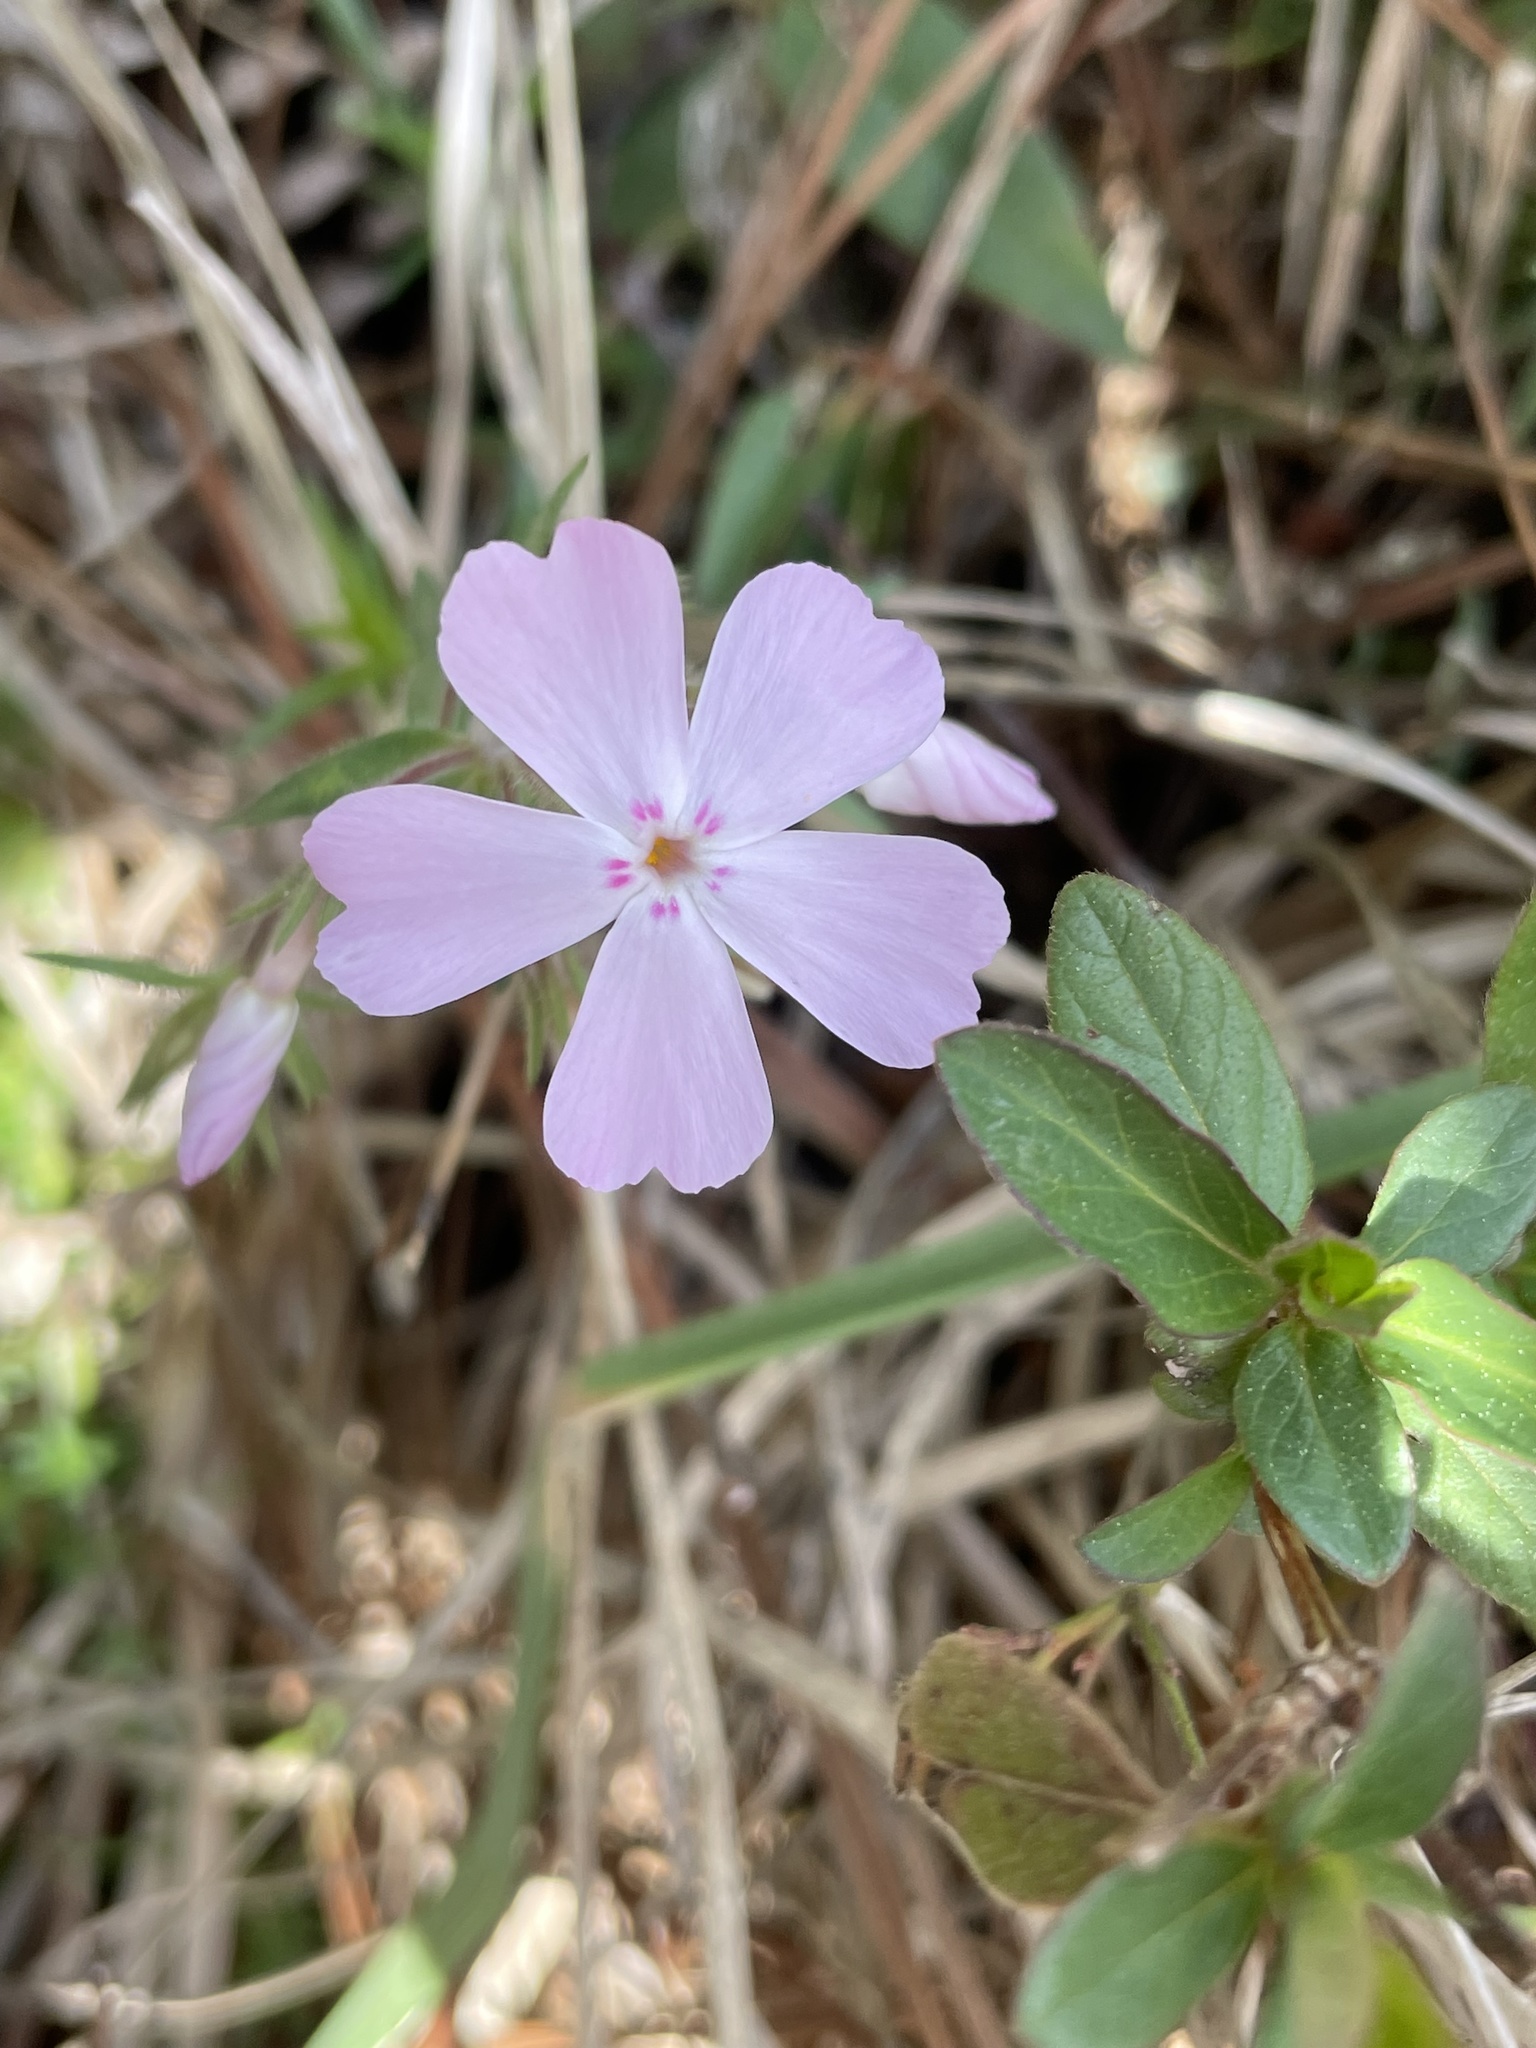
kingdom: Plantae
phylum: Tracheophyta
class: Magnoliopsida
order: Ericales
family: Polemoniaceae
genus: Phlox
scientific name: Phlox nivalis
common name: Trailing phlox
